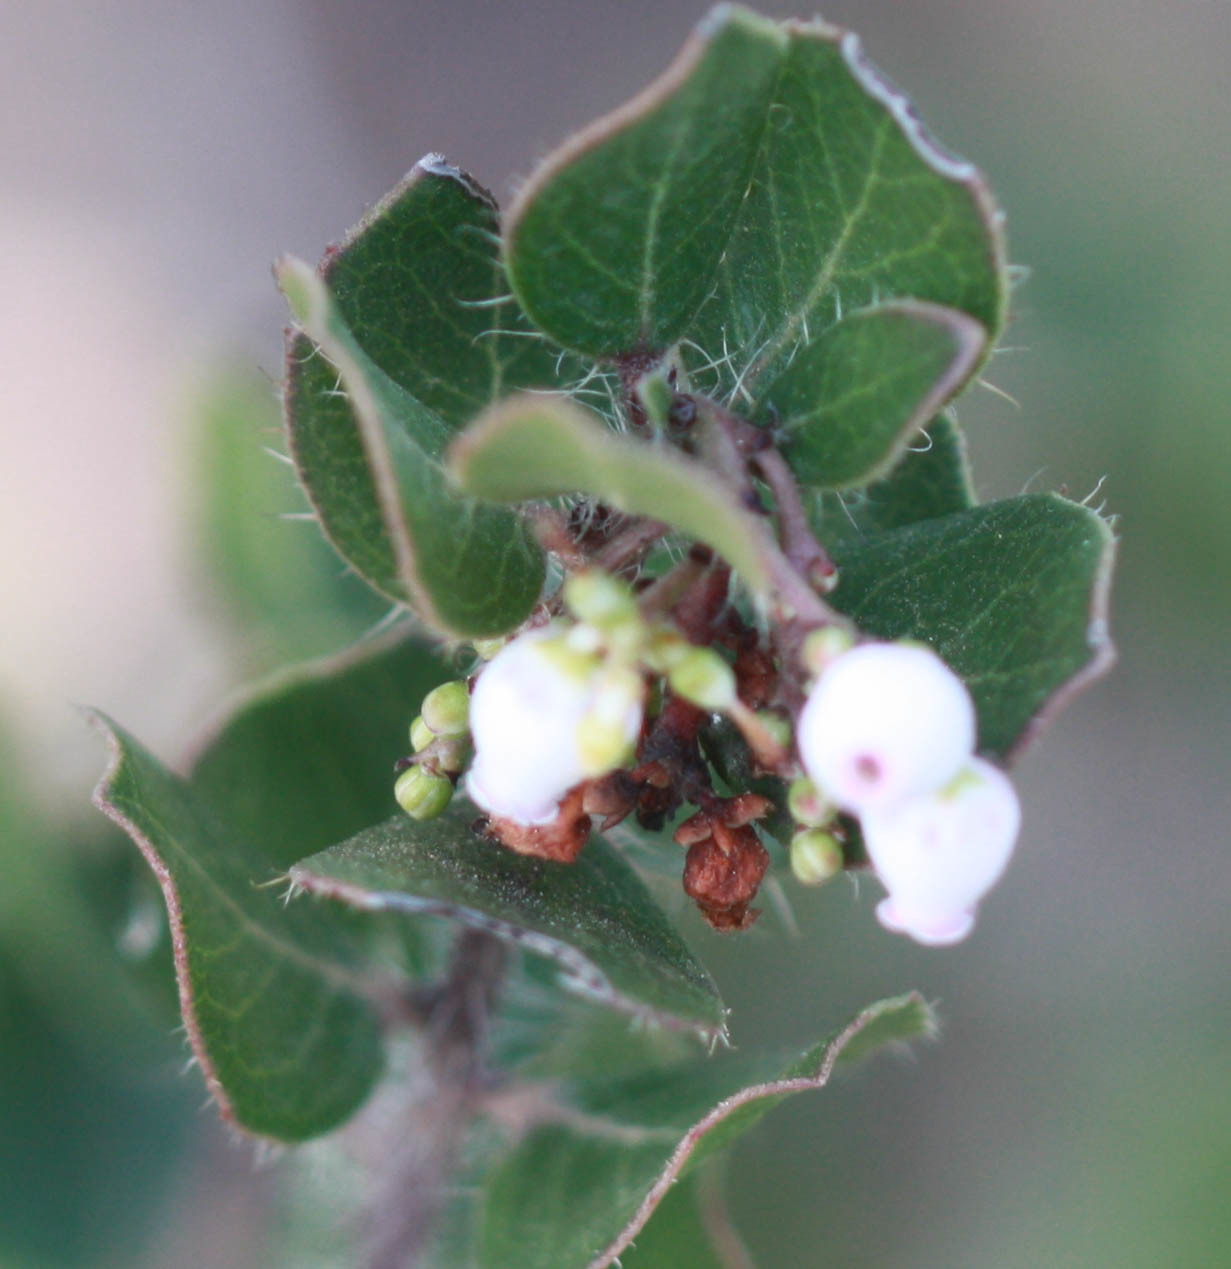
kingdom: Plantae
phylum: Tracheophyta
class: Magnoliopsida
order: Ericales
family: Ericaceae
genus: Arctostaphylos
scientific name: Arctostaphylos nummularia
